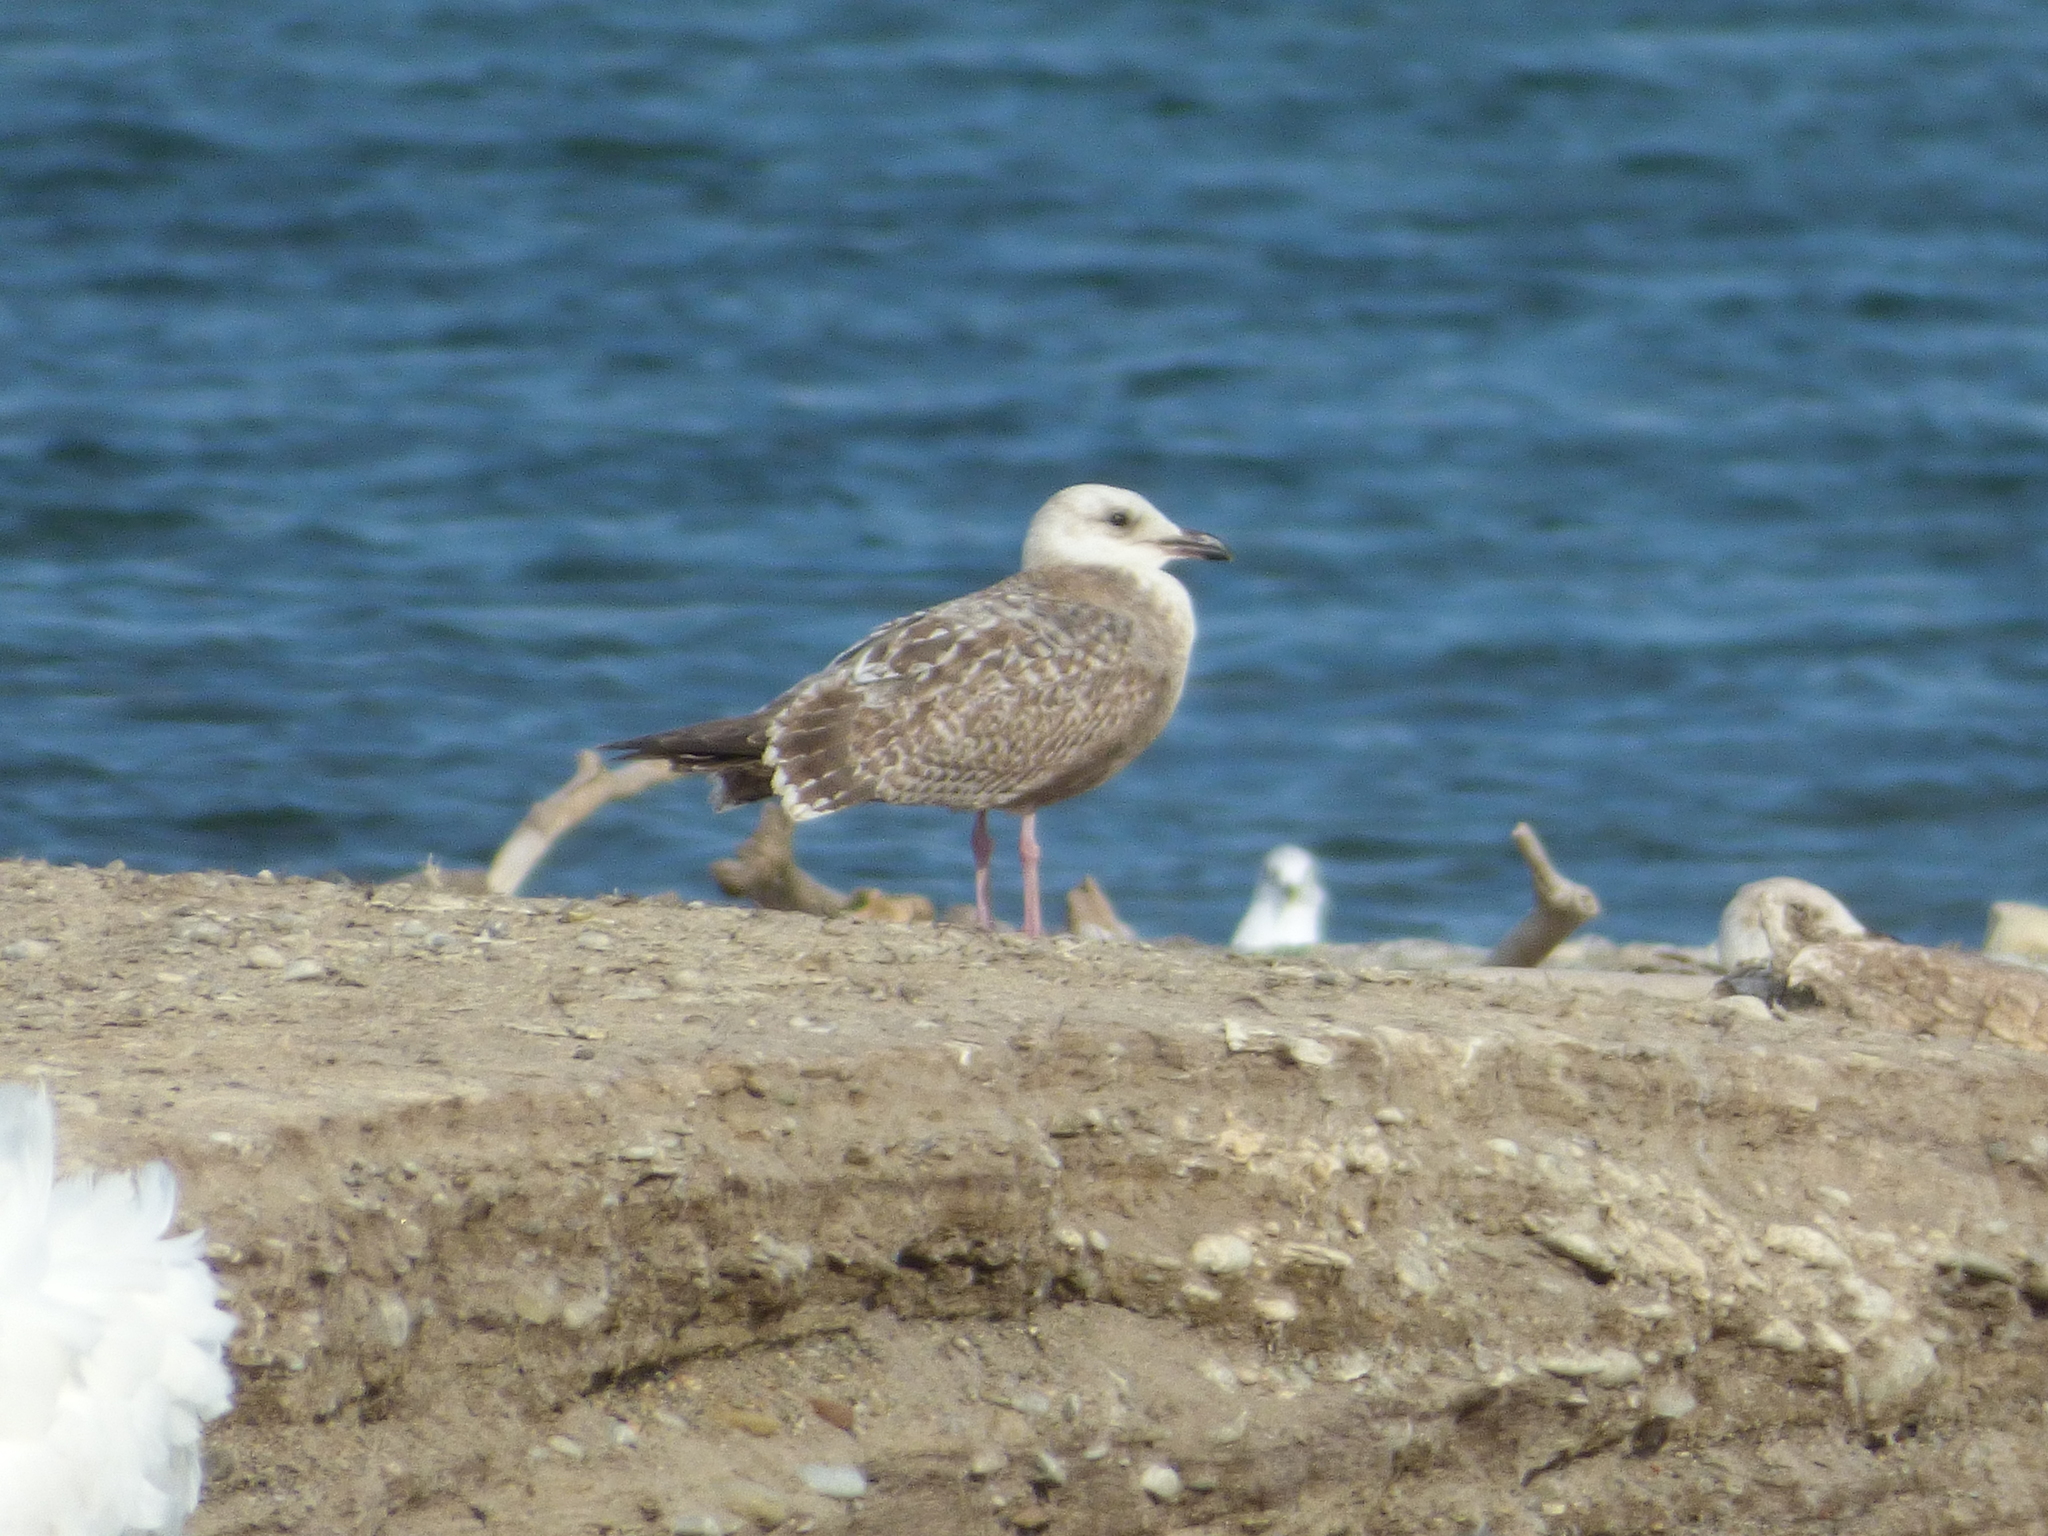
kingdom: Animalia
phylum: Chordata
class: Aves
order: Charadriiformes
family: Laridae
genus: Larus
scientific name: Larus argentatus
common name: Herring gull
